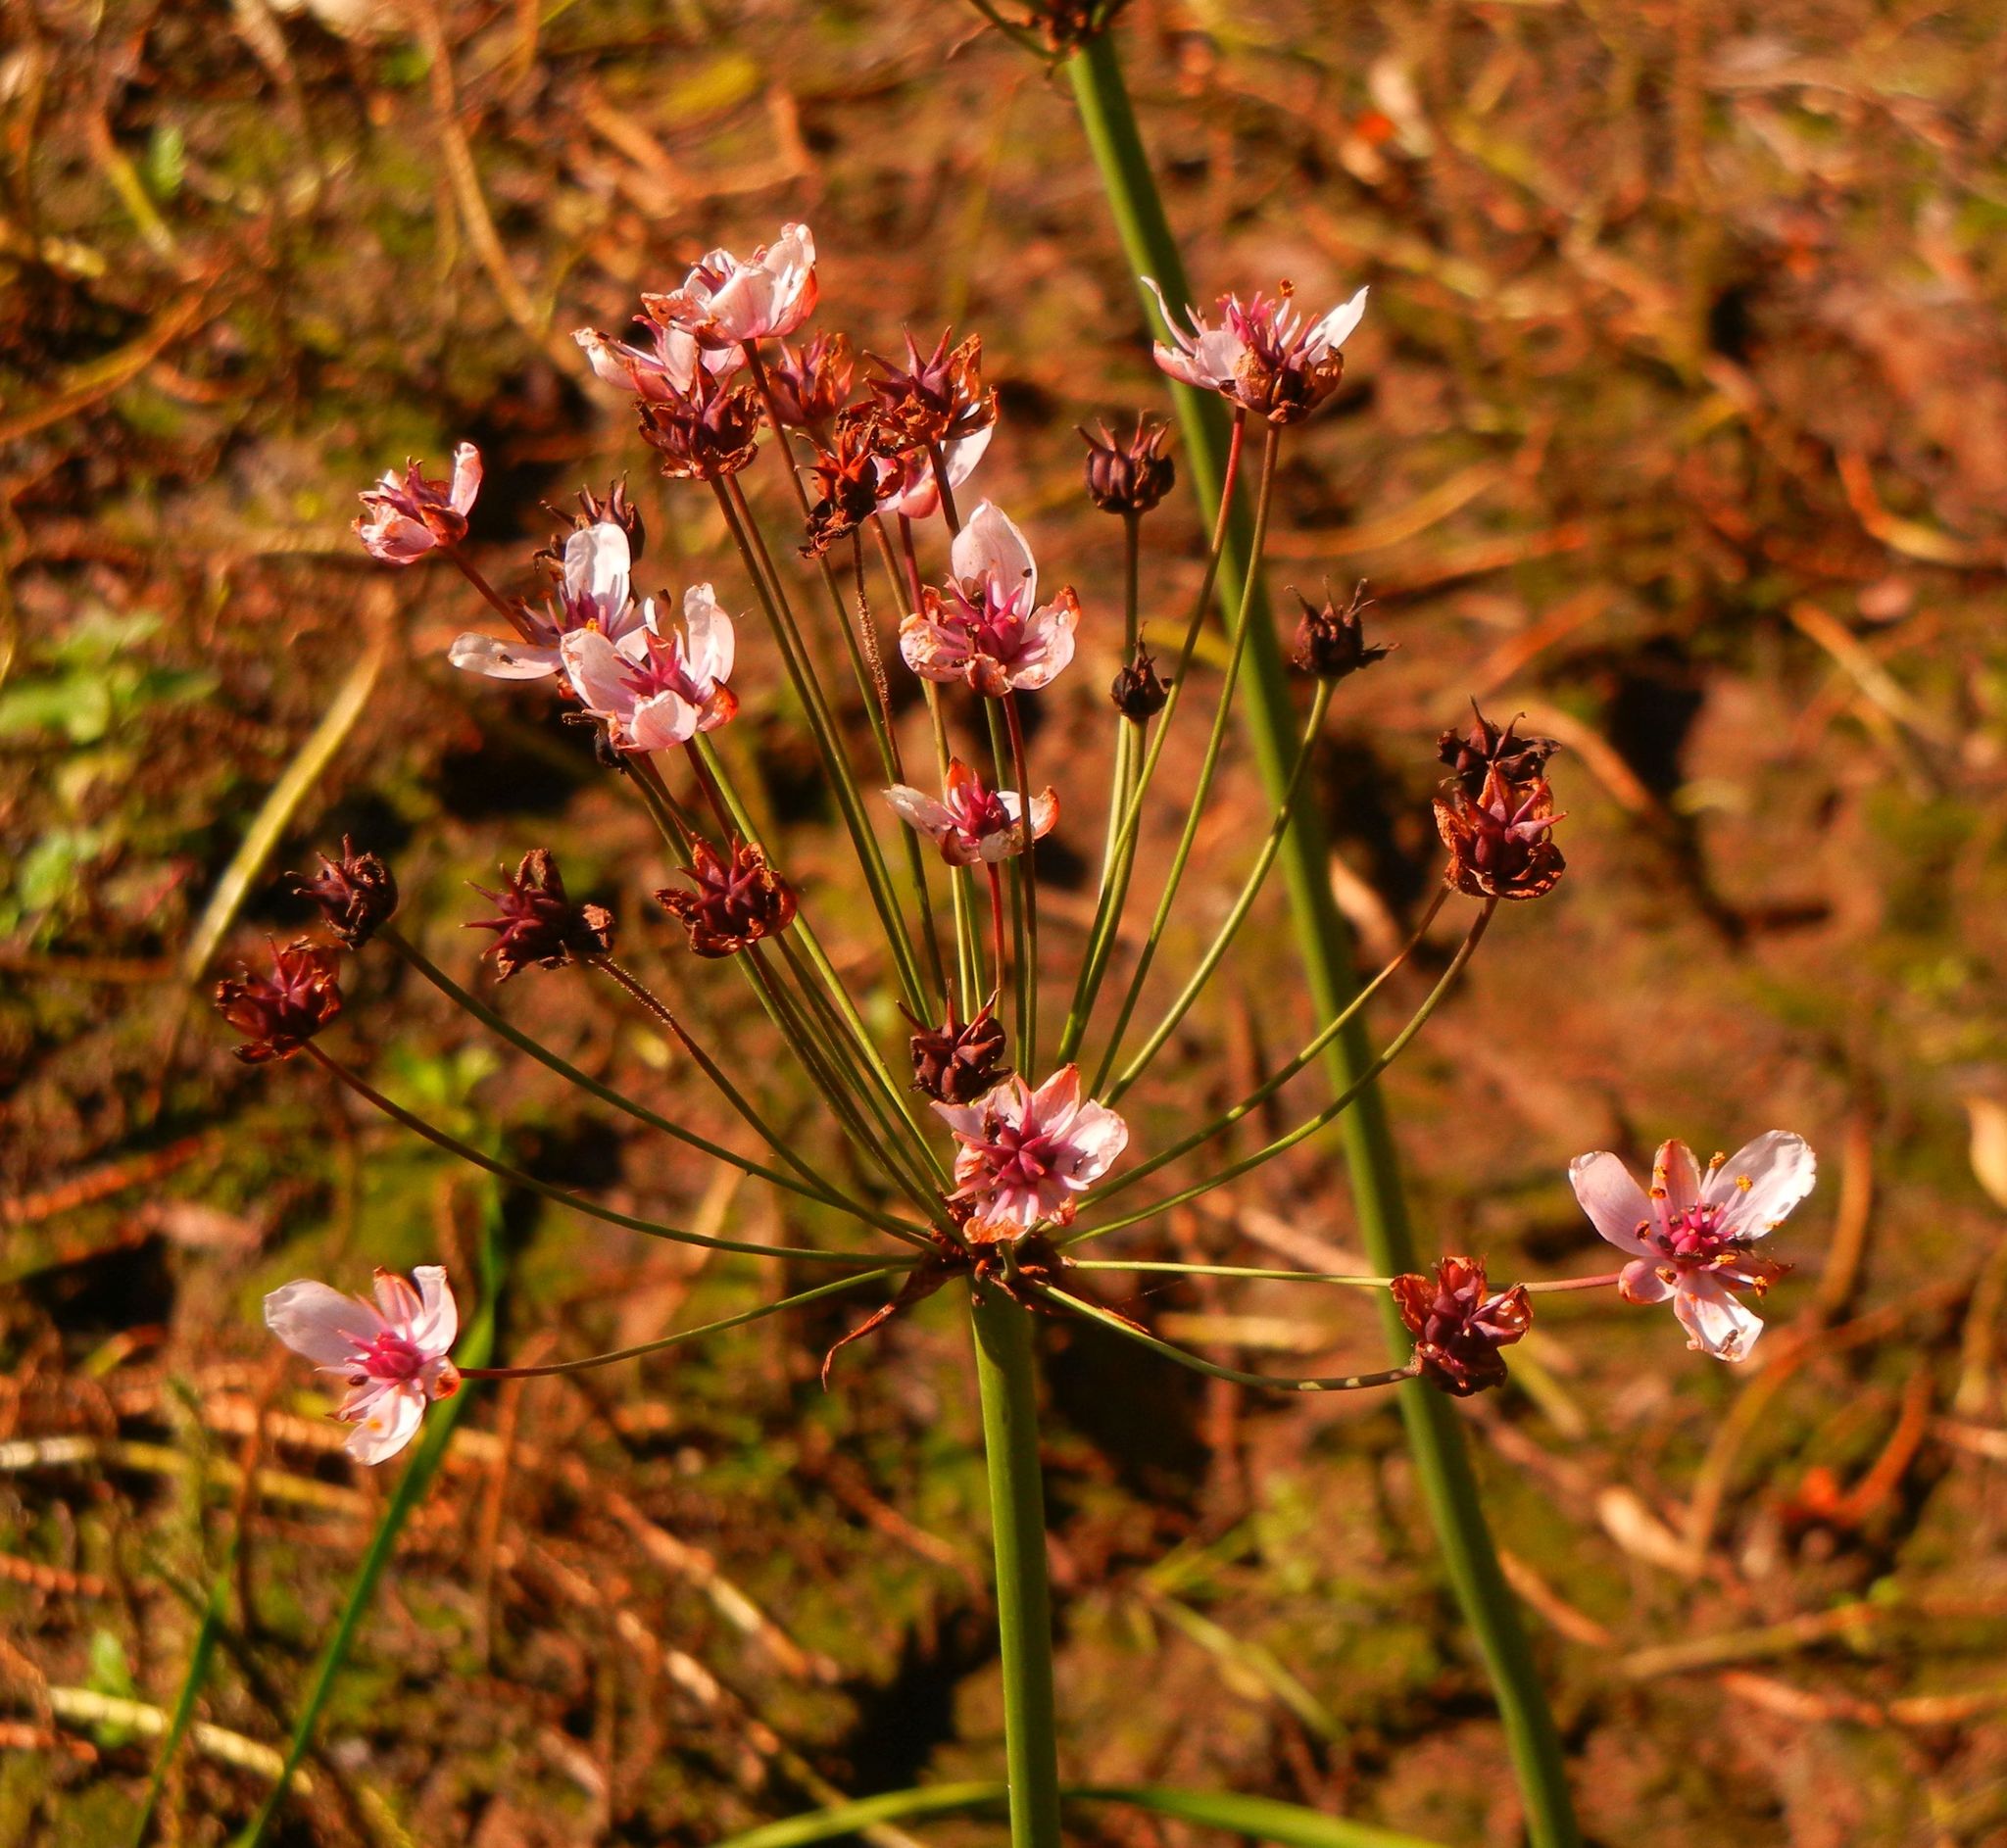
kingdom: Plantae
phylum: Tracheophyta
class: Liliopsida
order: Alismatales
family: Butomaceae
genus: Butomus
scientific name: Butomus umbellatus
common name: Flowering-rush
